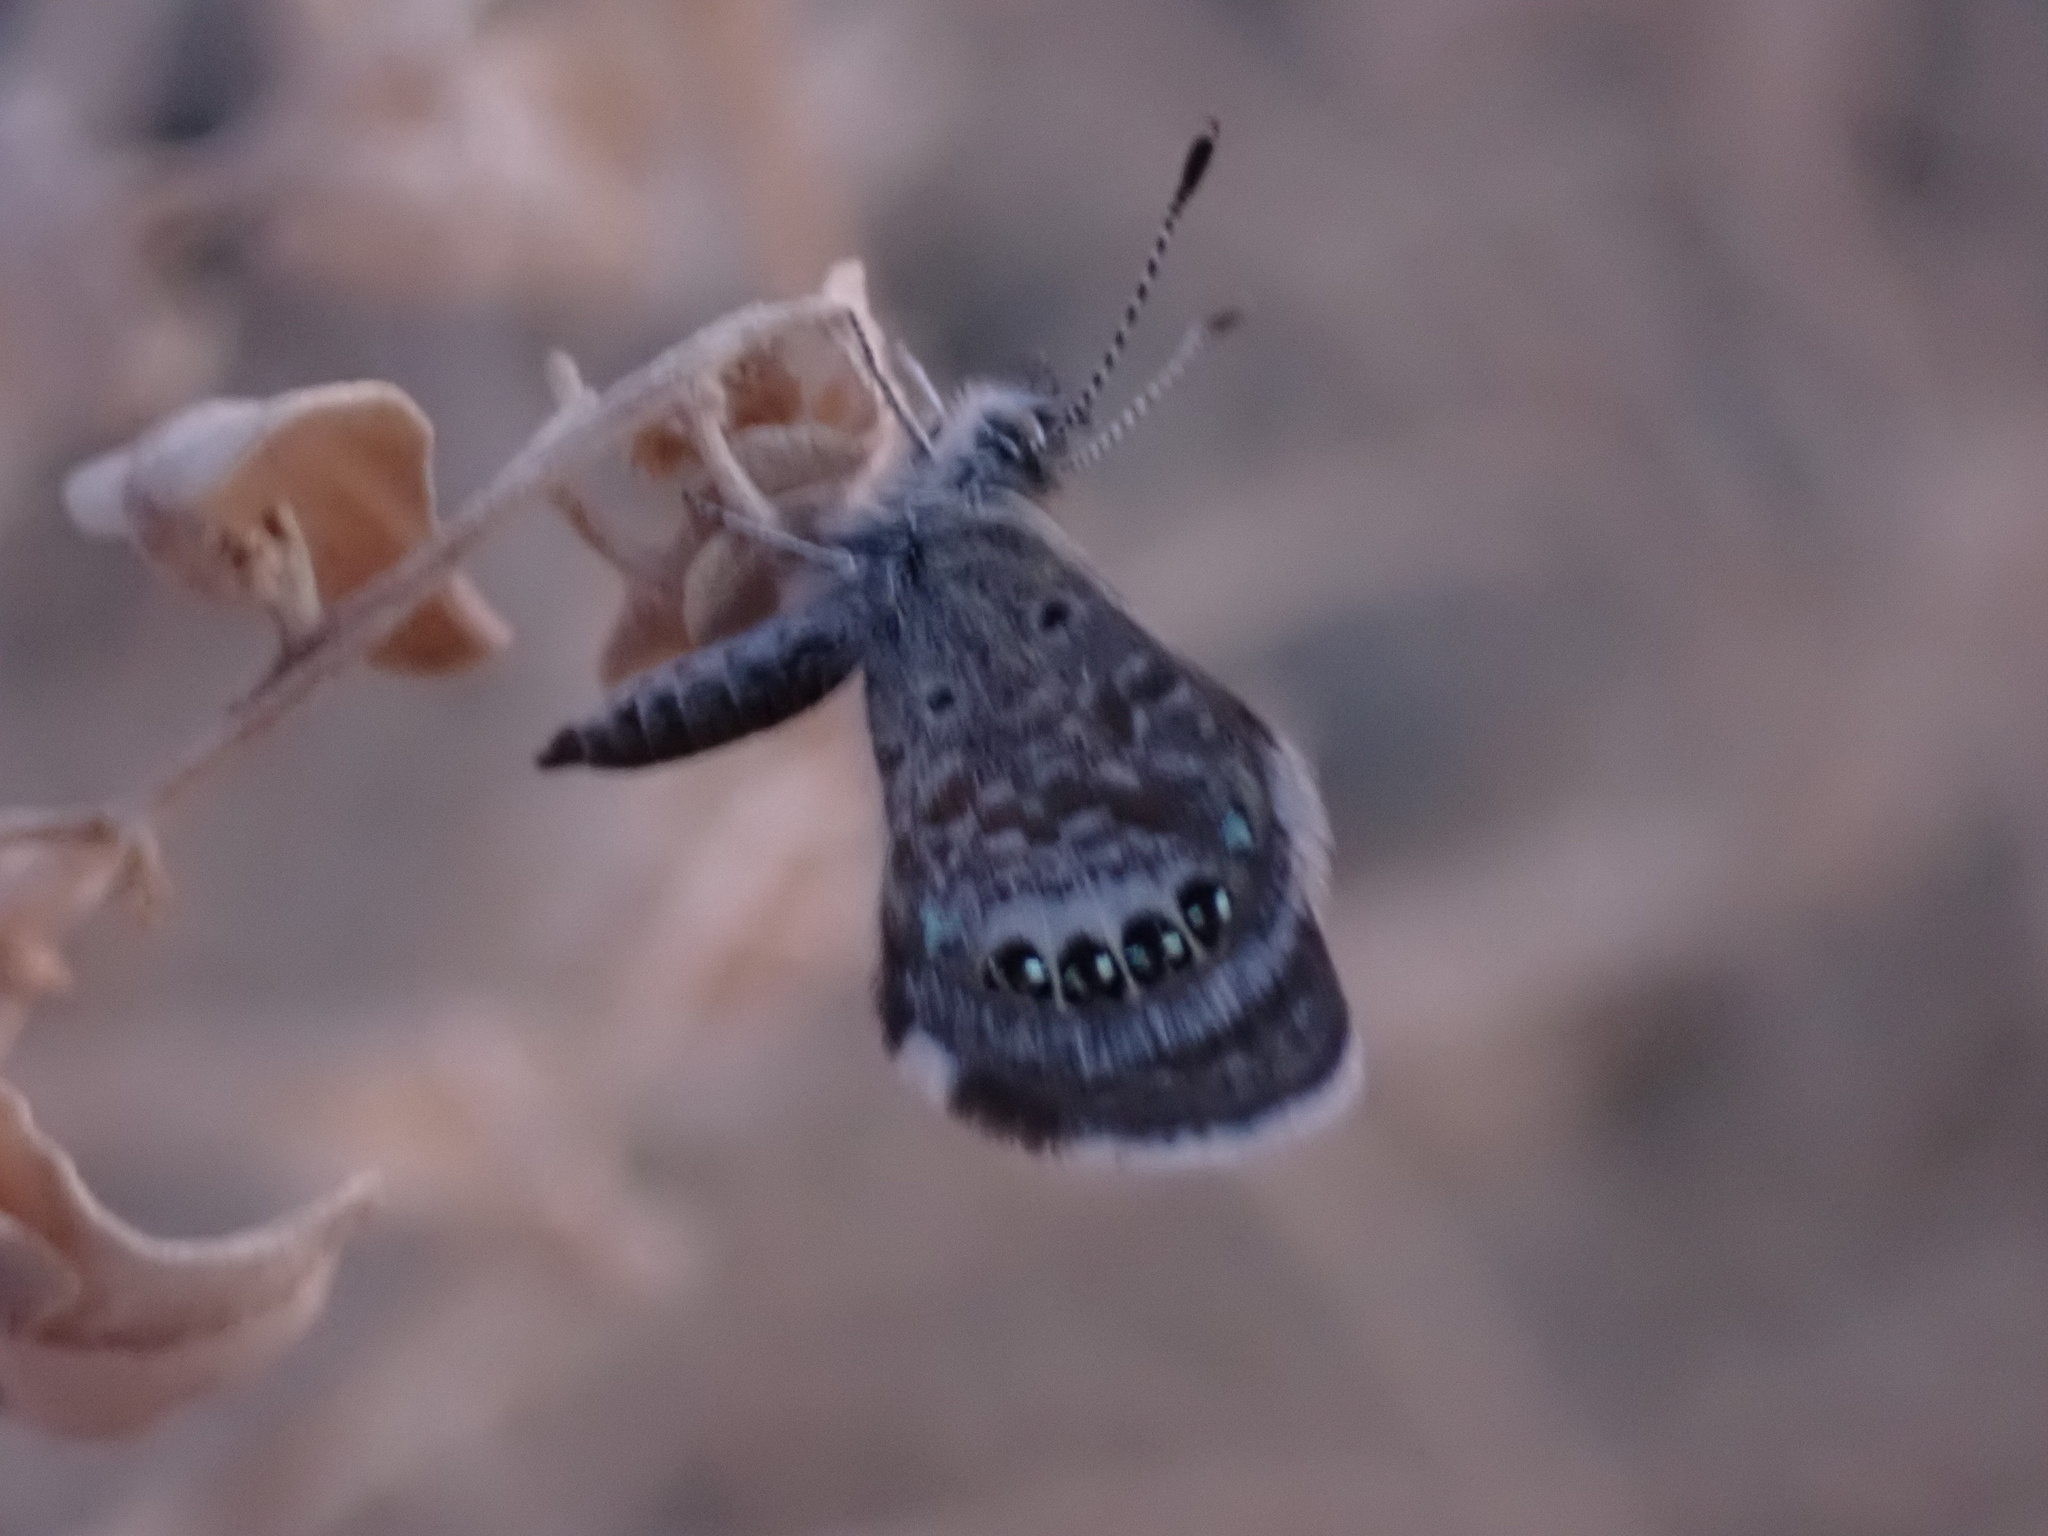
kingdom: Animalia
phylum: Arthropoda
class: Insecta
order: Lepidoptera
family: Lycaenidae
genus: Brephidium
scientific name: Brephidium exilis
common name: Pygmy blue
